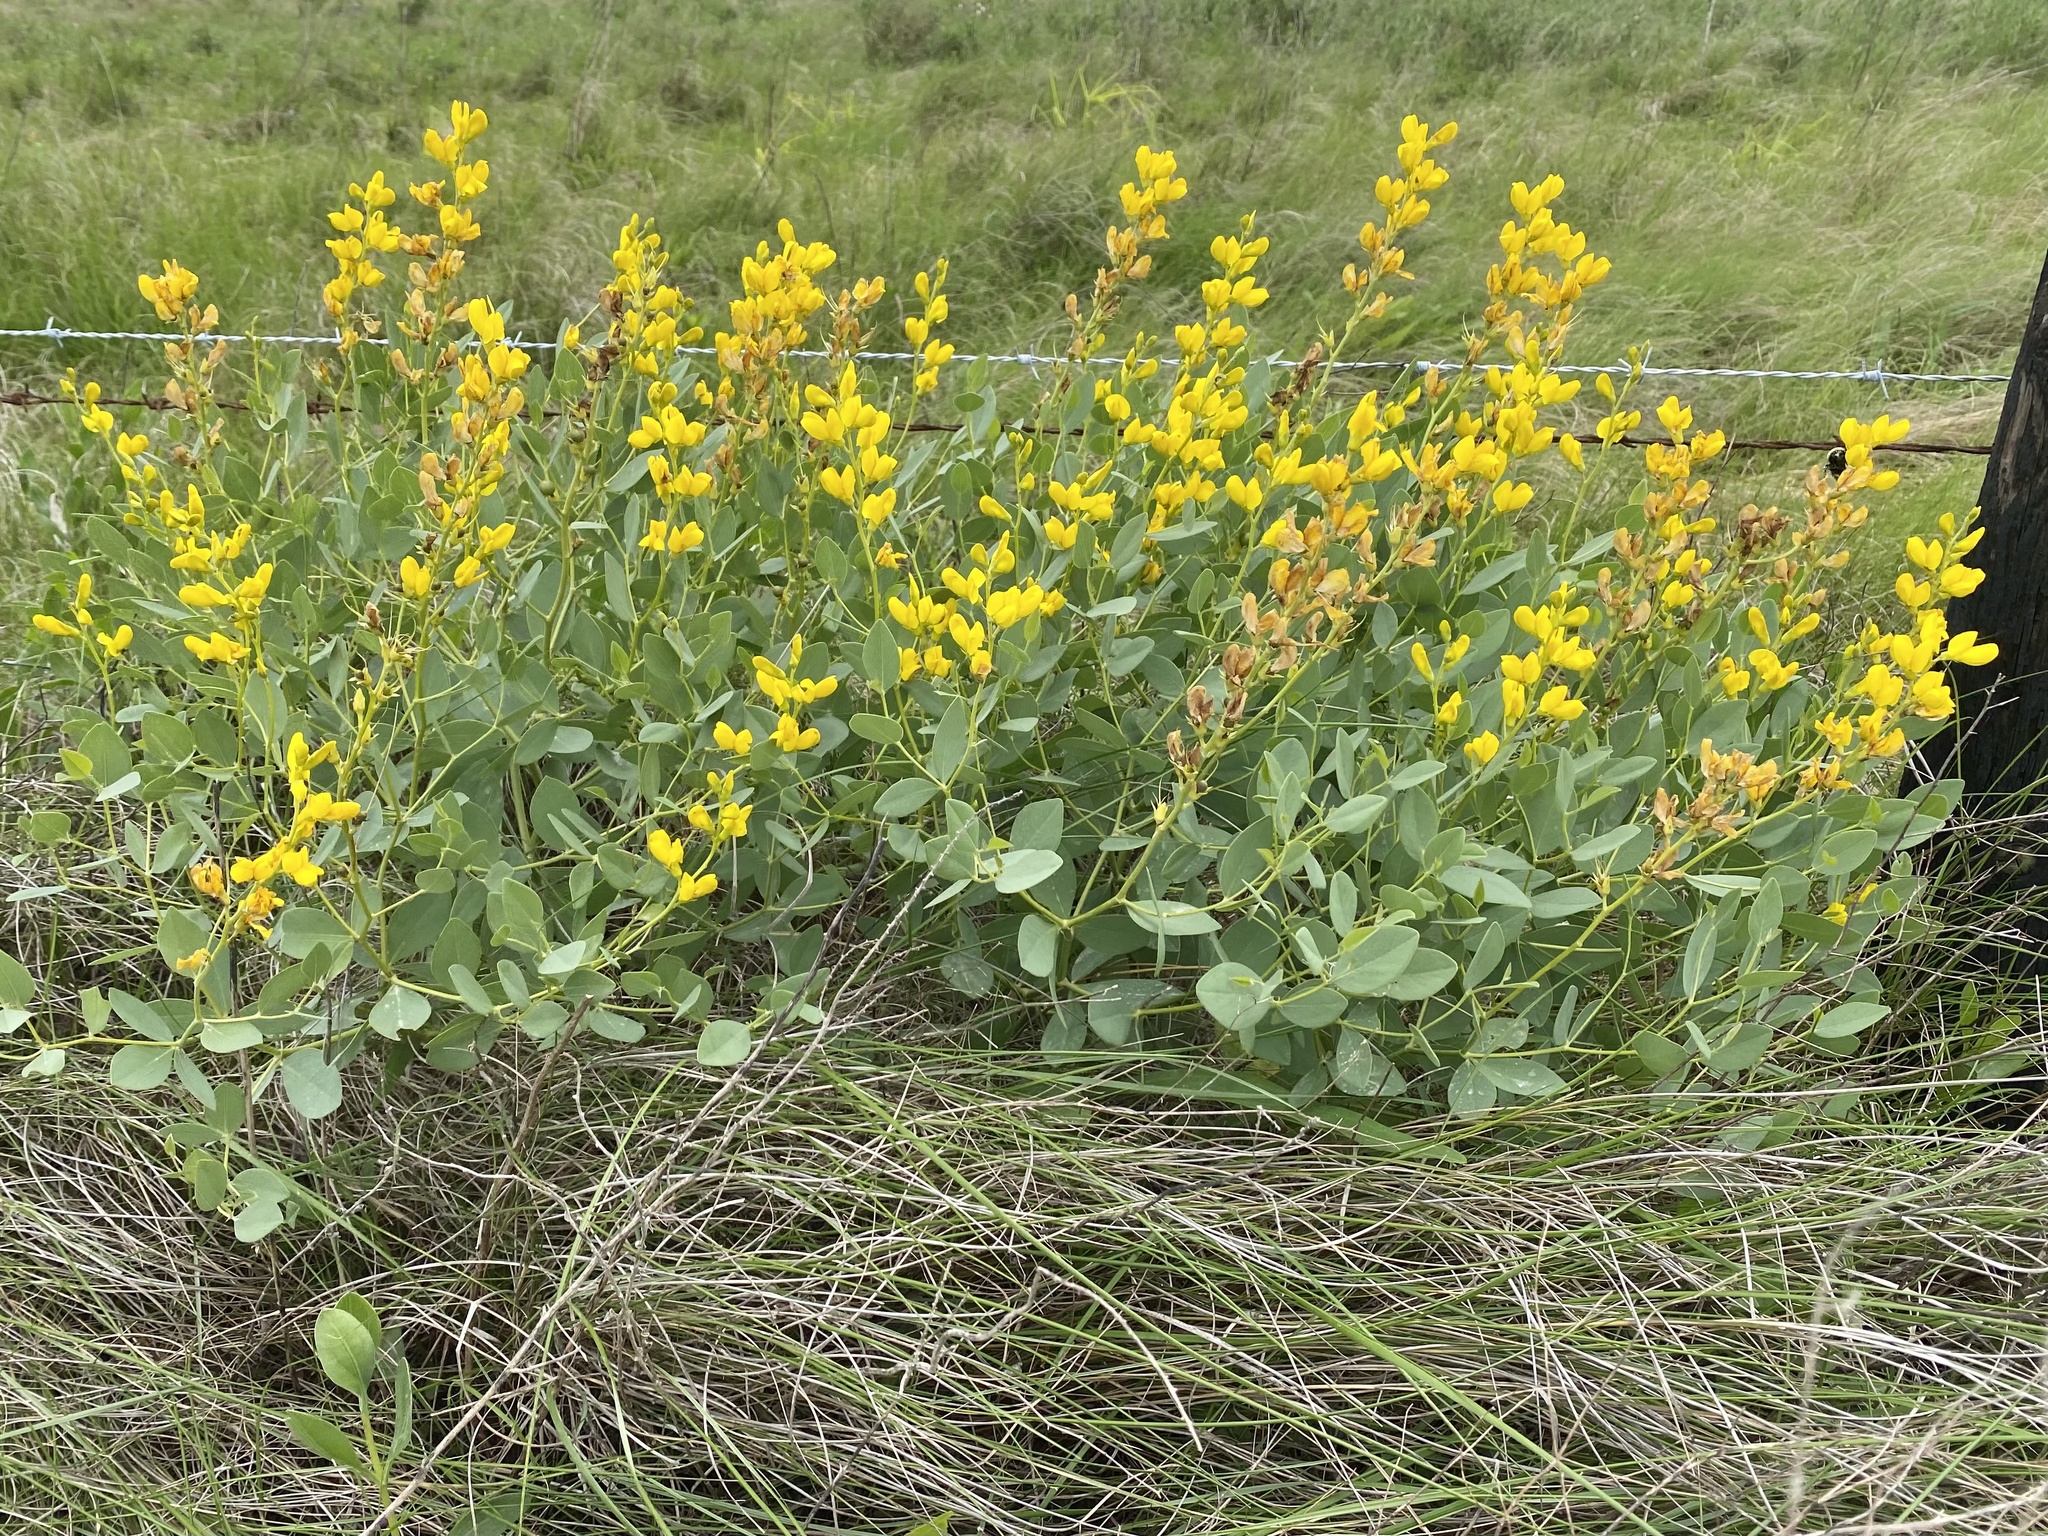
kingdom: Plantae
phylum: Tracheophyta
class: Magnoliopsida
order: Fabales
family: Fabaceae
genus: Baptisia
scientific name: Baptisia sphaerocarpa
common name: Round wild indigo
